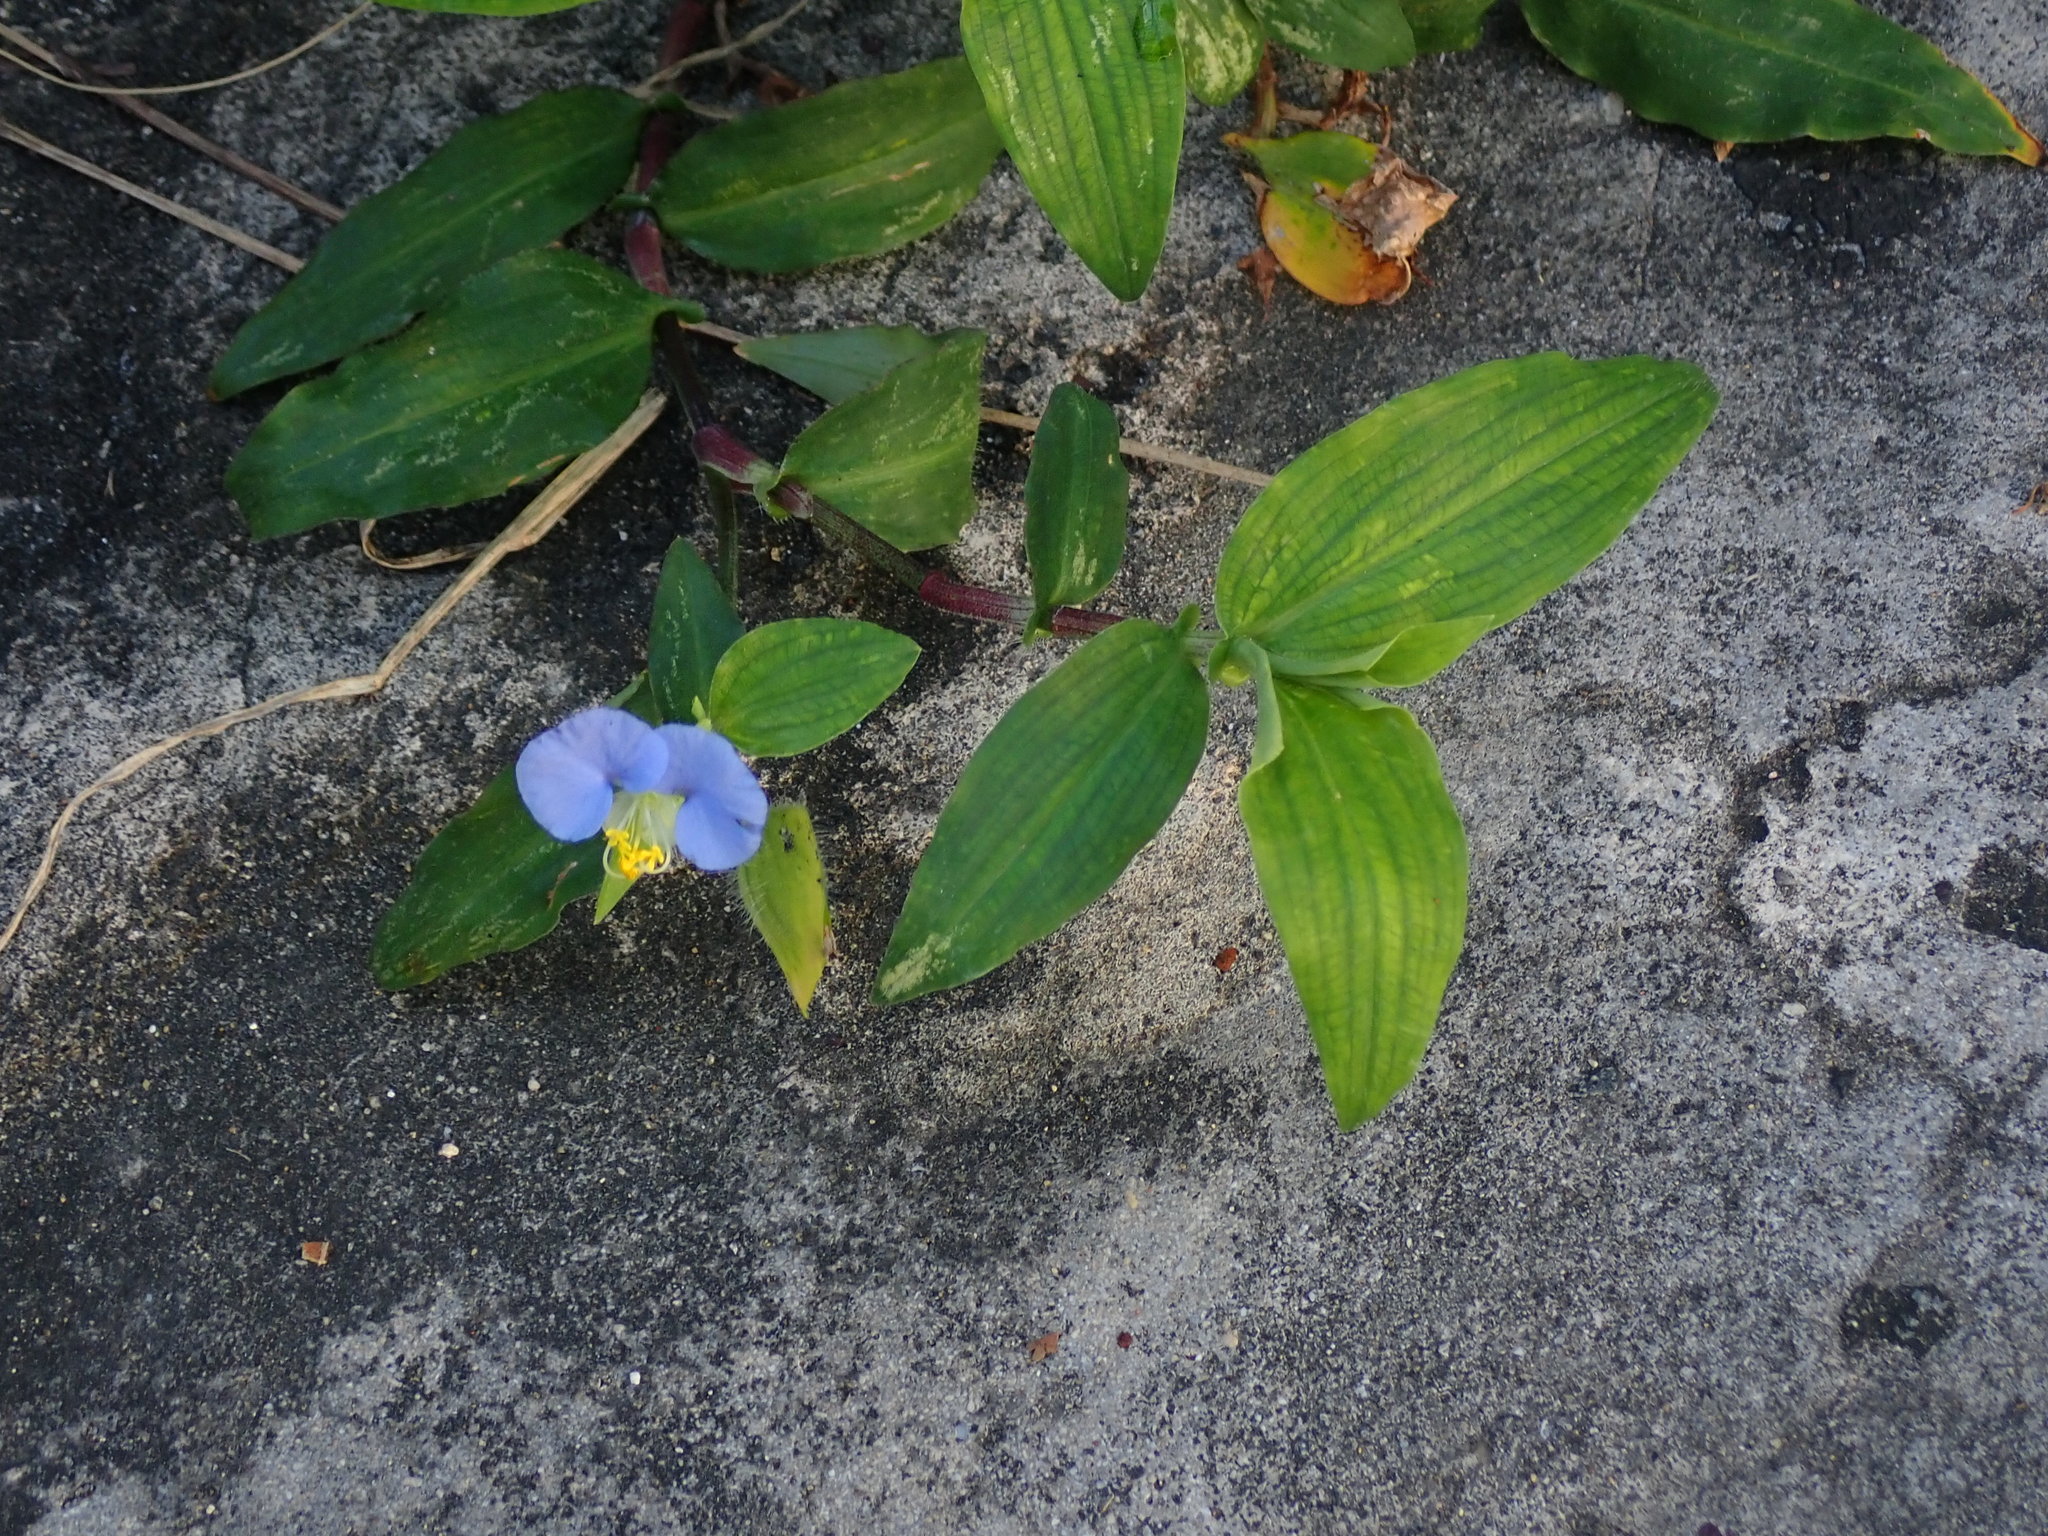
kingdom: Plantae
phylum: Tracheophyta
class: Liliopsida
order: Commelinales
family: Commelinaceae
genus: Commelina
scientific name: Commelina erecta
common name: Blousel blommetjie
